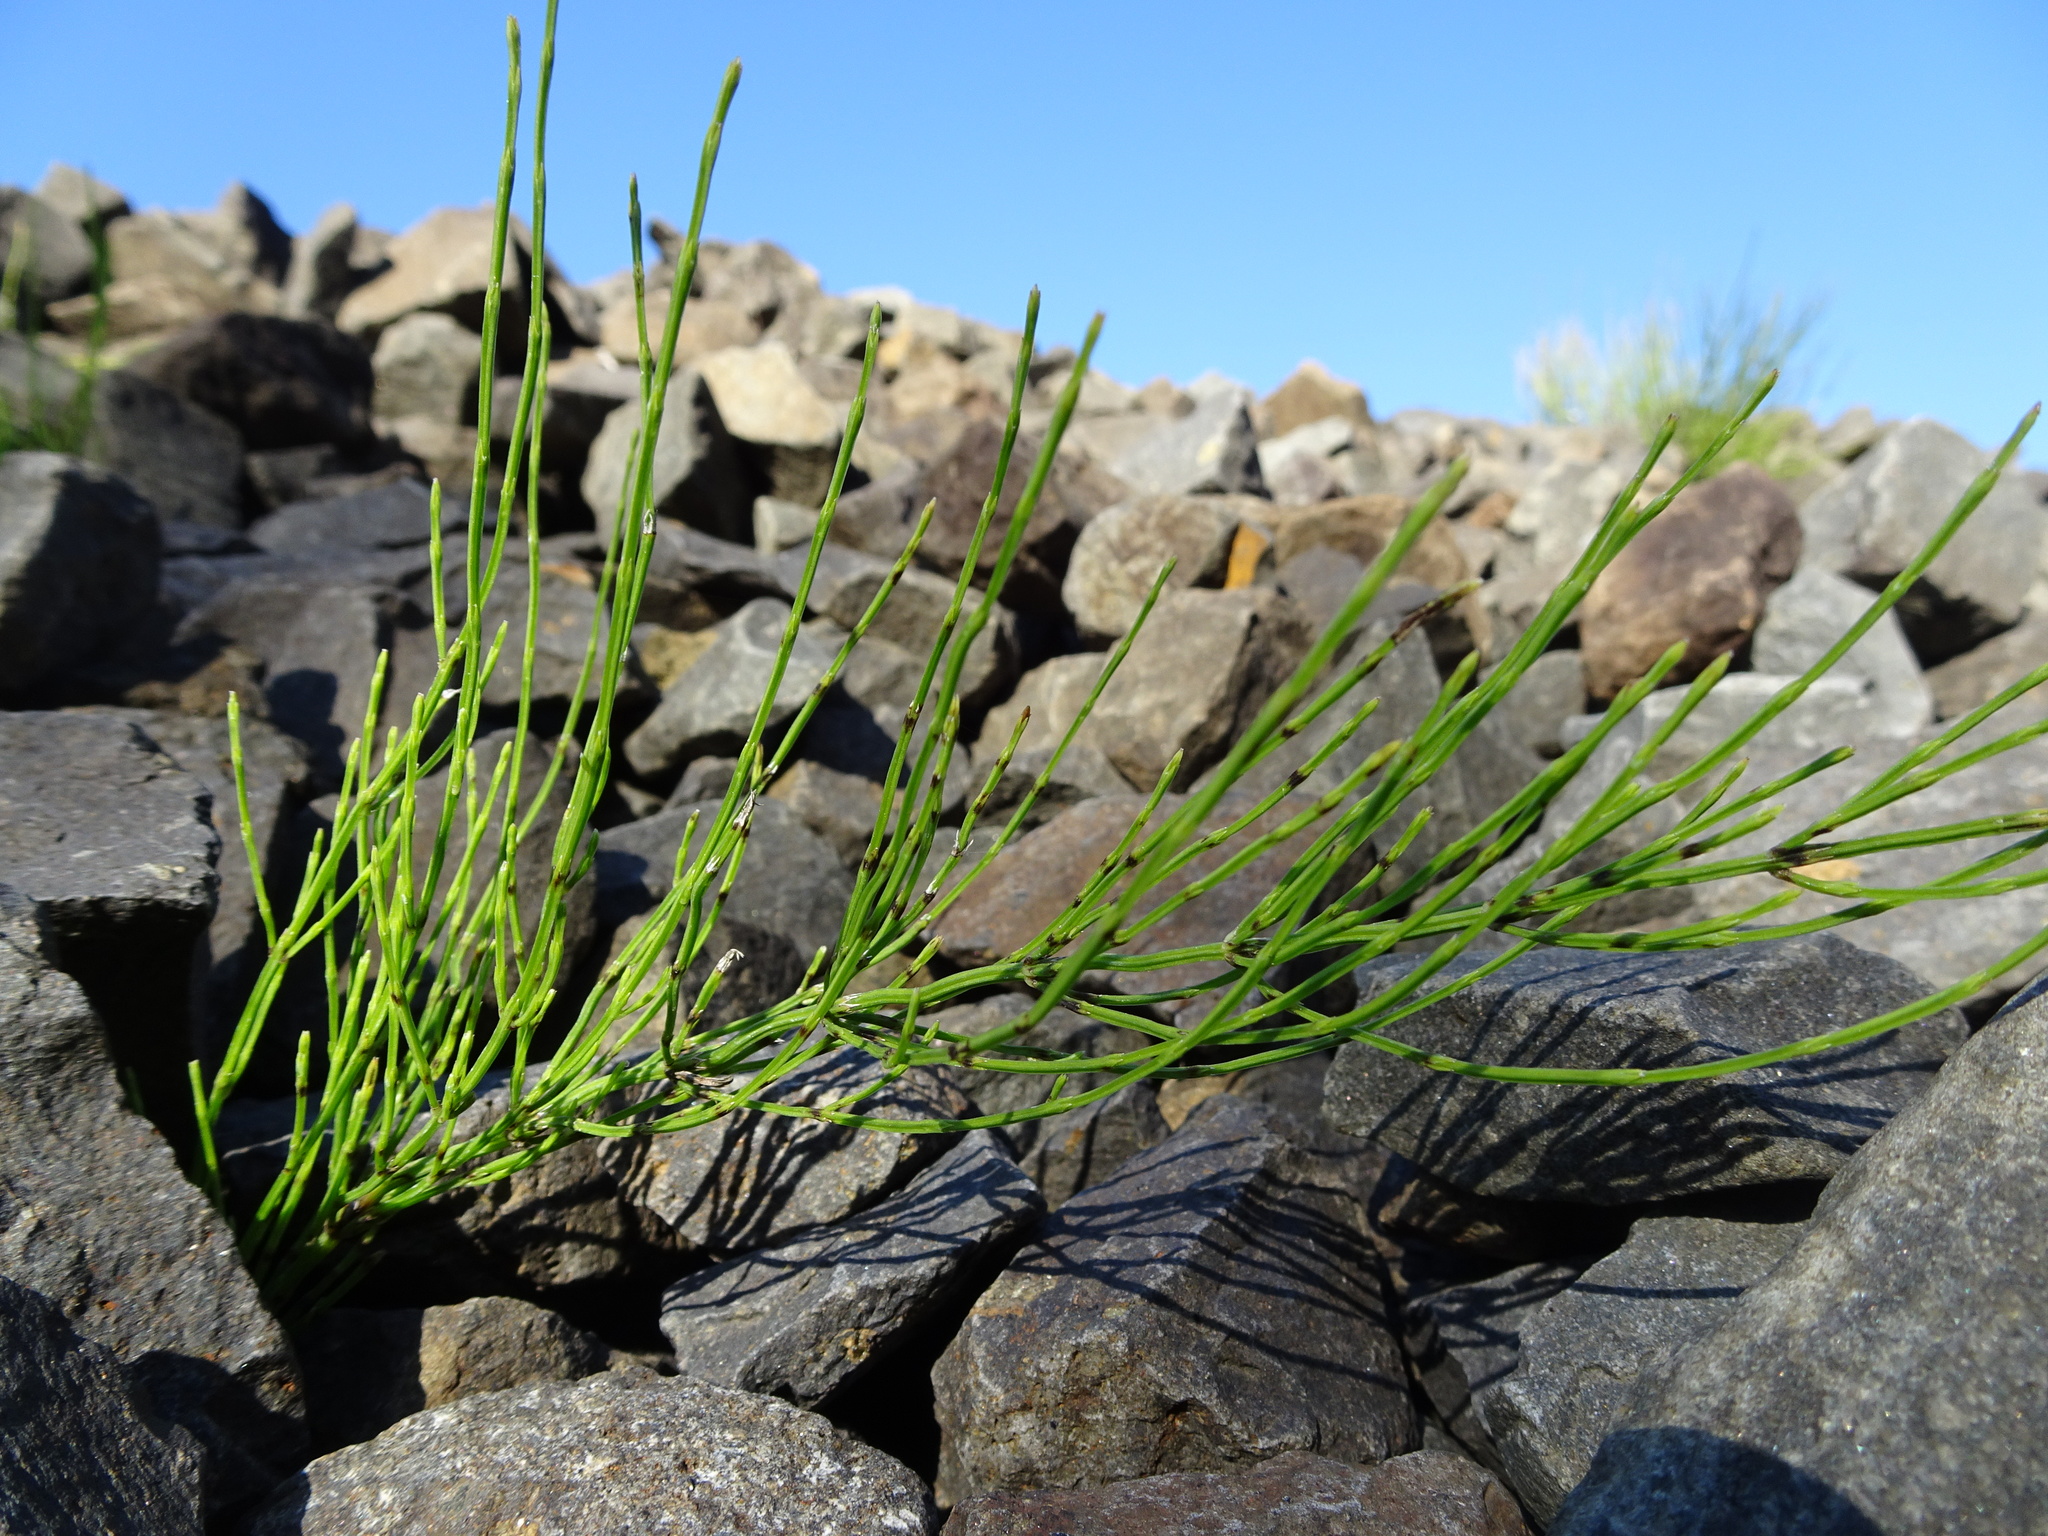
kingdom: Plantae
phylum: Tracheophyta
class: Polypodiopsida
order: Equisetales
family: Equisetaceae
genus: Equisetum
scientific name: Equisetum arvense
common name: Field horsetail
